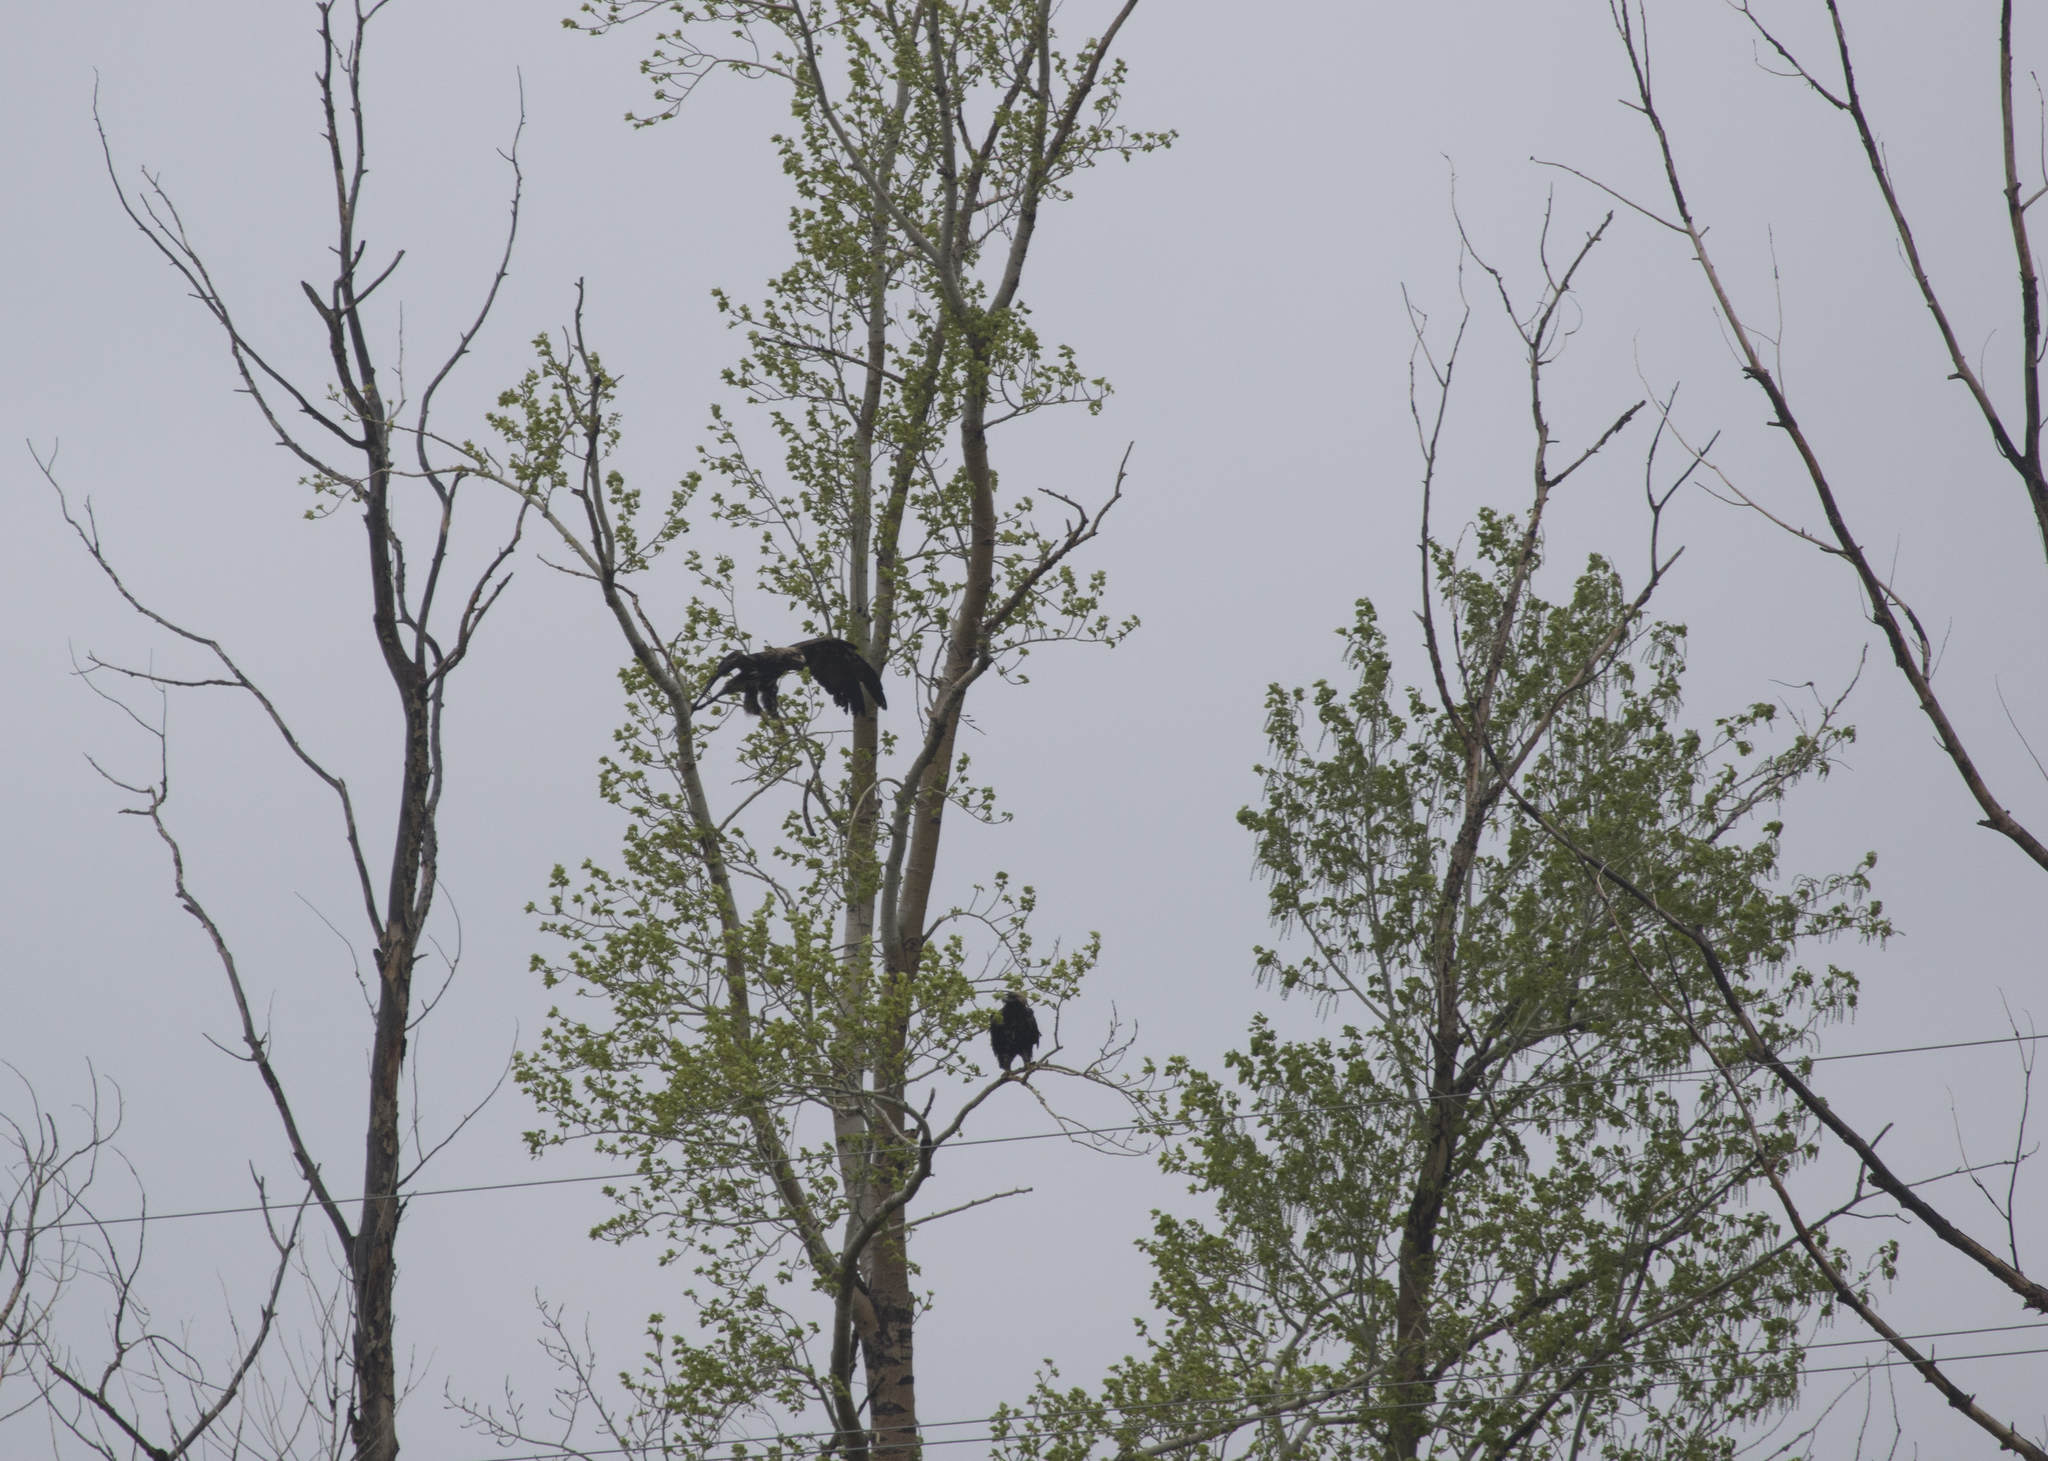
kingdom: Animalia
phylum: Chordata
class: Aves
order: Accipitriformes
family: Accipitridae
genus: Aquila
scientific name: Aquila heliaca
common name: Eastern imperial eagle
